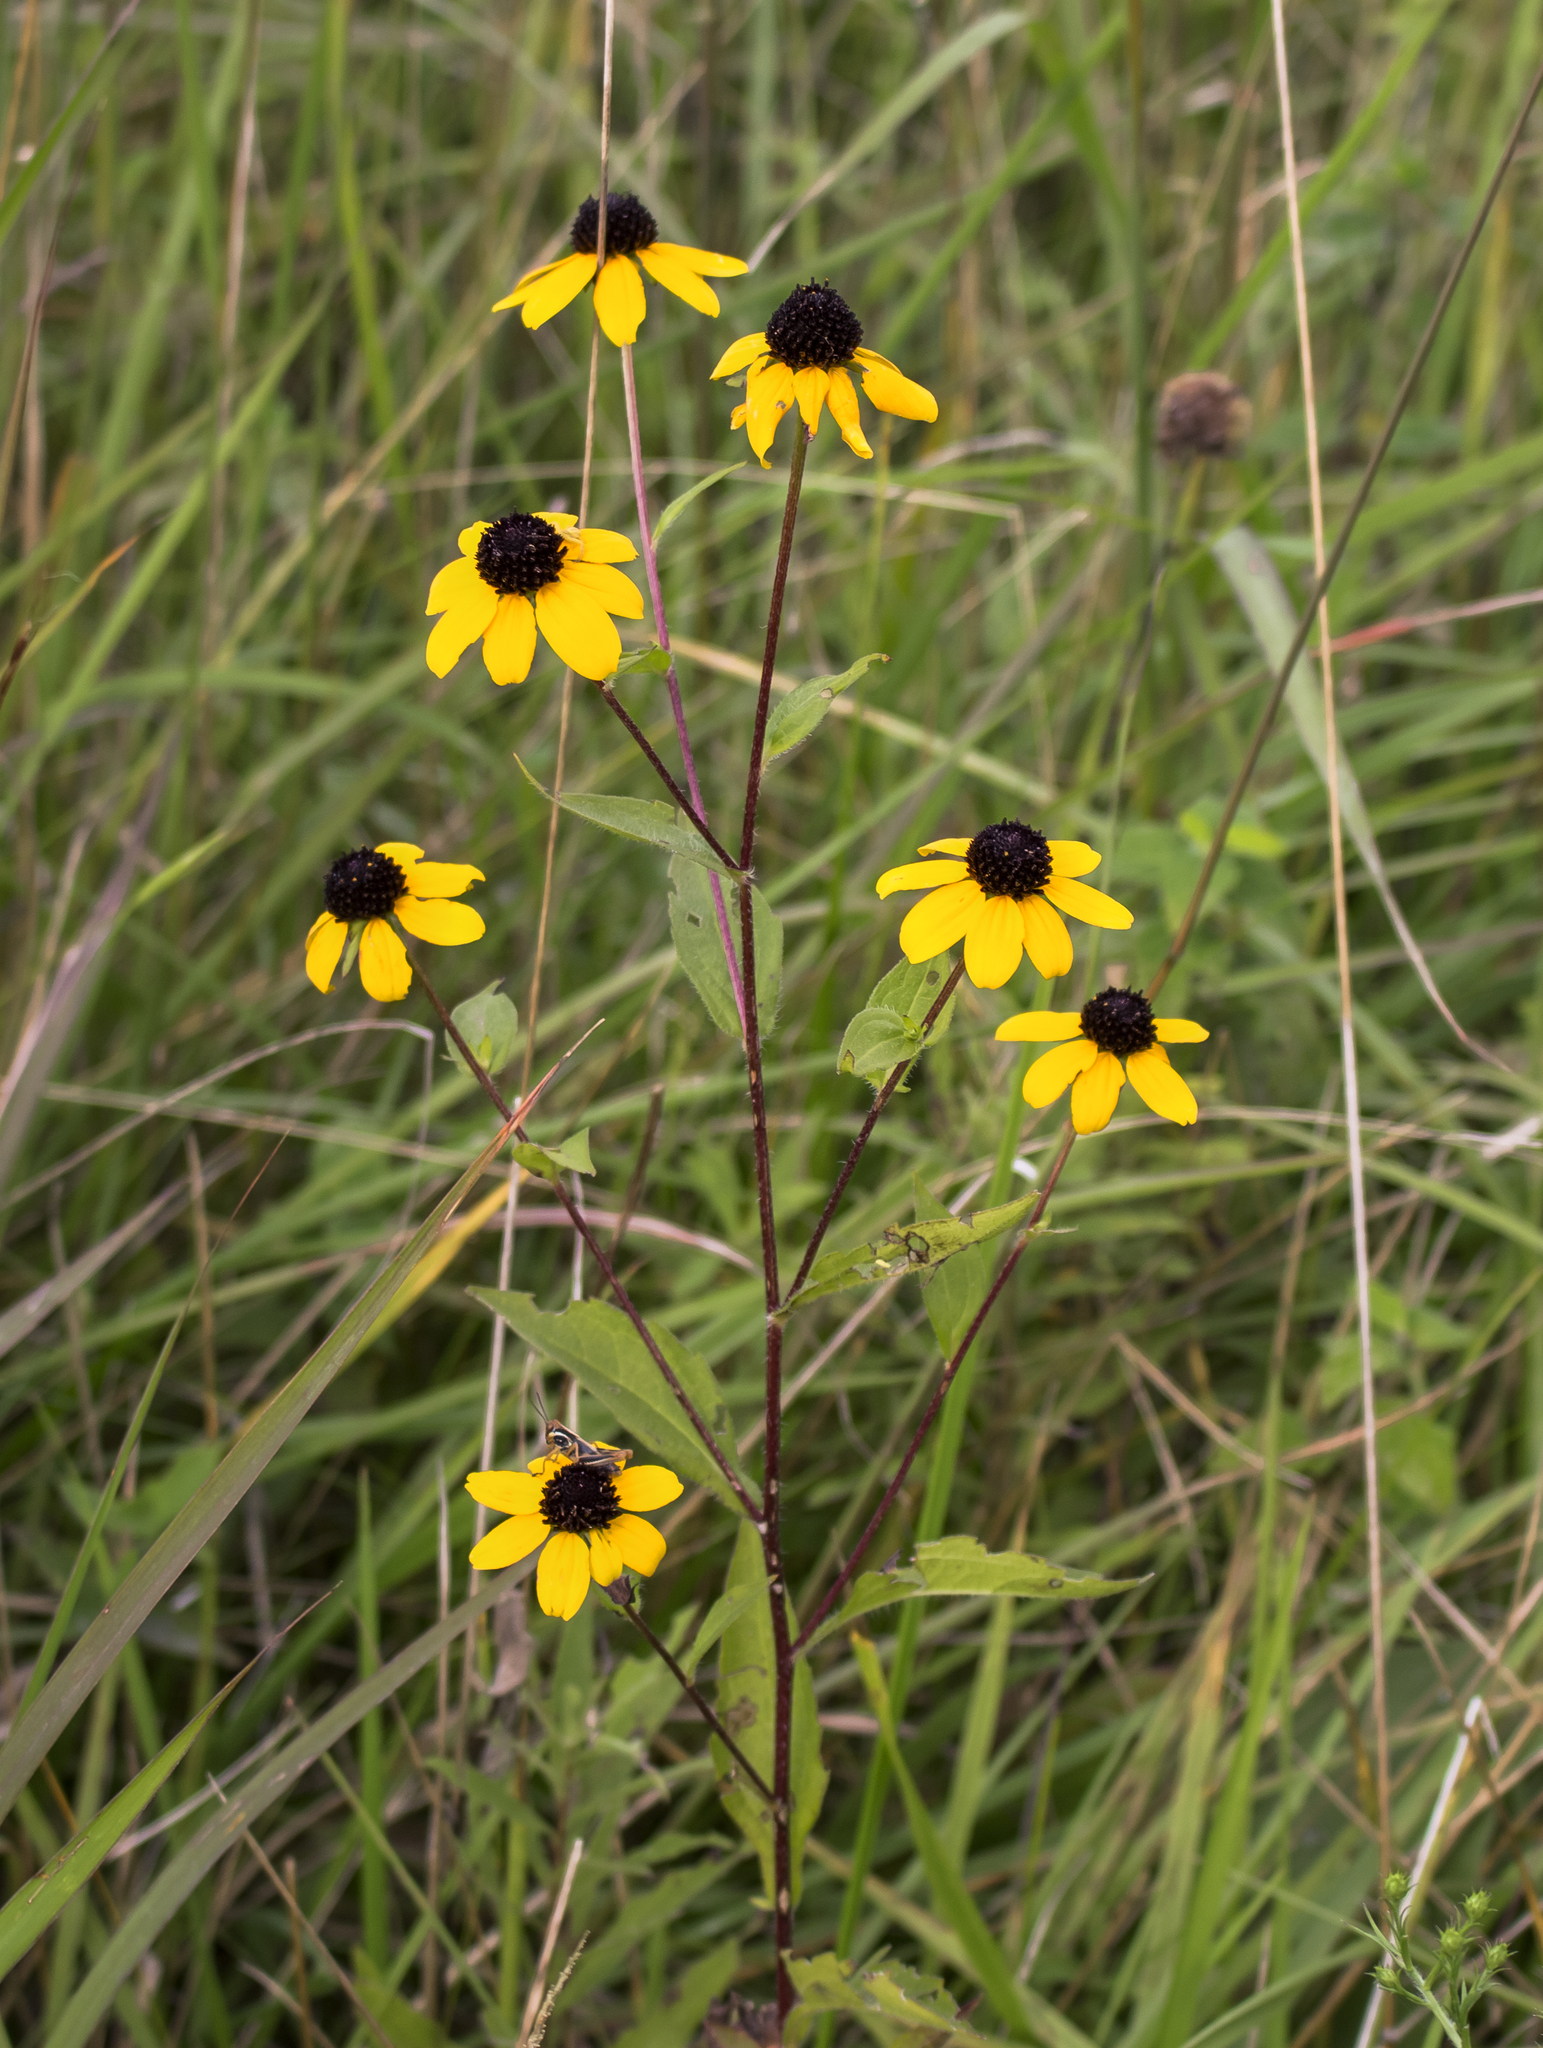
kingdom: Plantae
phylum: Tracheophyta
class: Magnoliopsida
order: Asterales
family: Asteraceae
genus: Rudbeckia
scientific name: Rudbeckia triloba
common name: Thin-leaved coneflower
